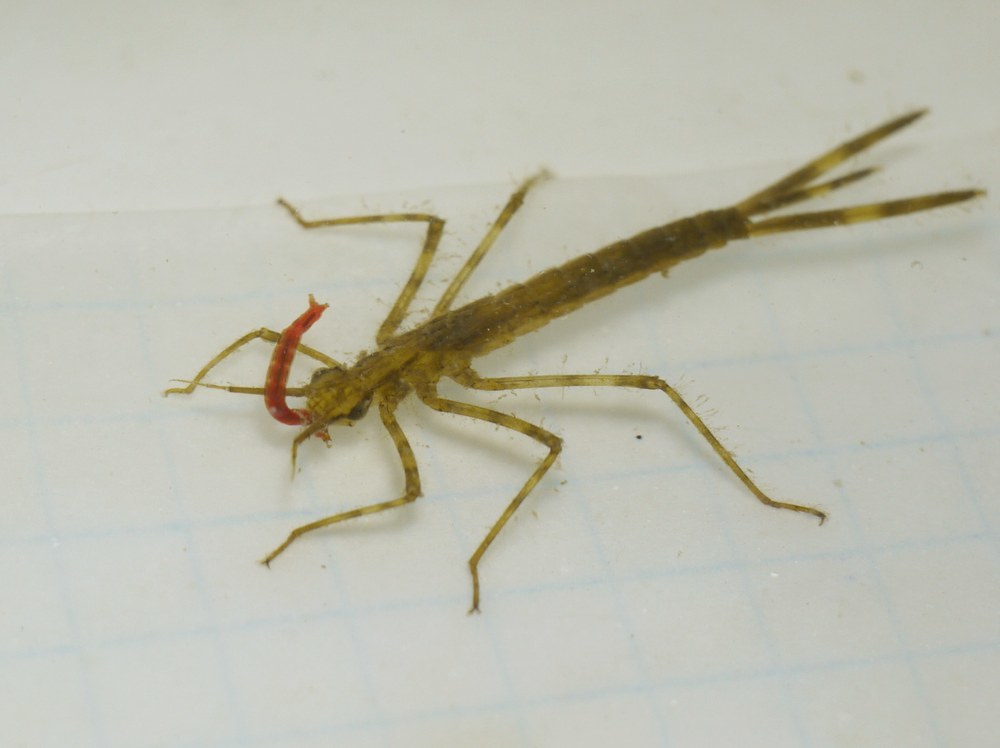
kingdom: Animalia
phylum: Arthropoda
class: Insecta
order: Odonata
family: Calopterygidae
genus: Calopteryx
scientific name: Calopteryx splendens
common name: Banded demoiselle
